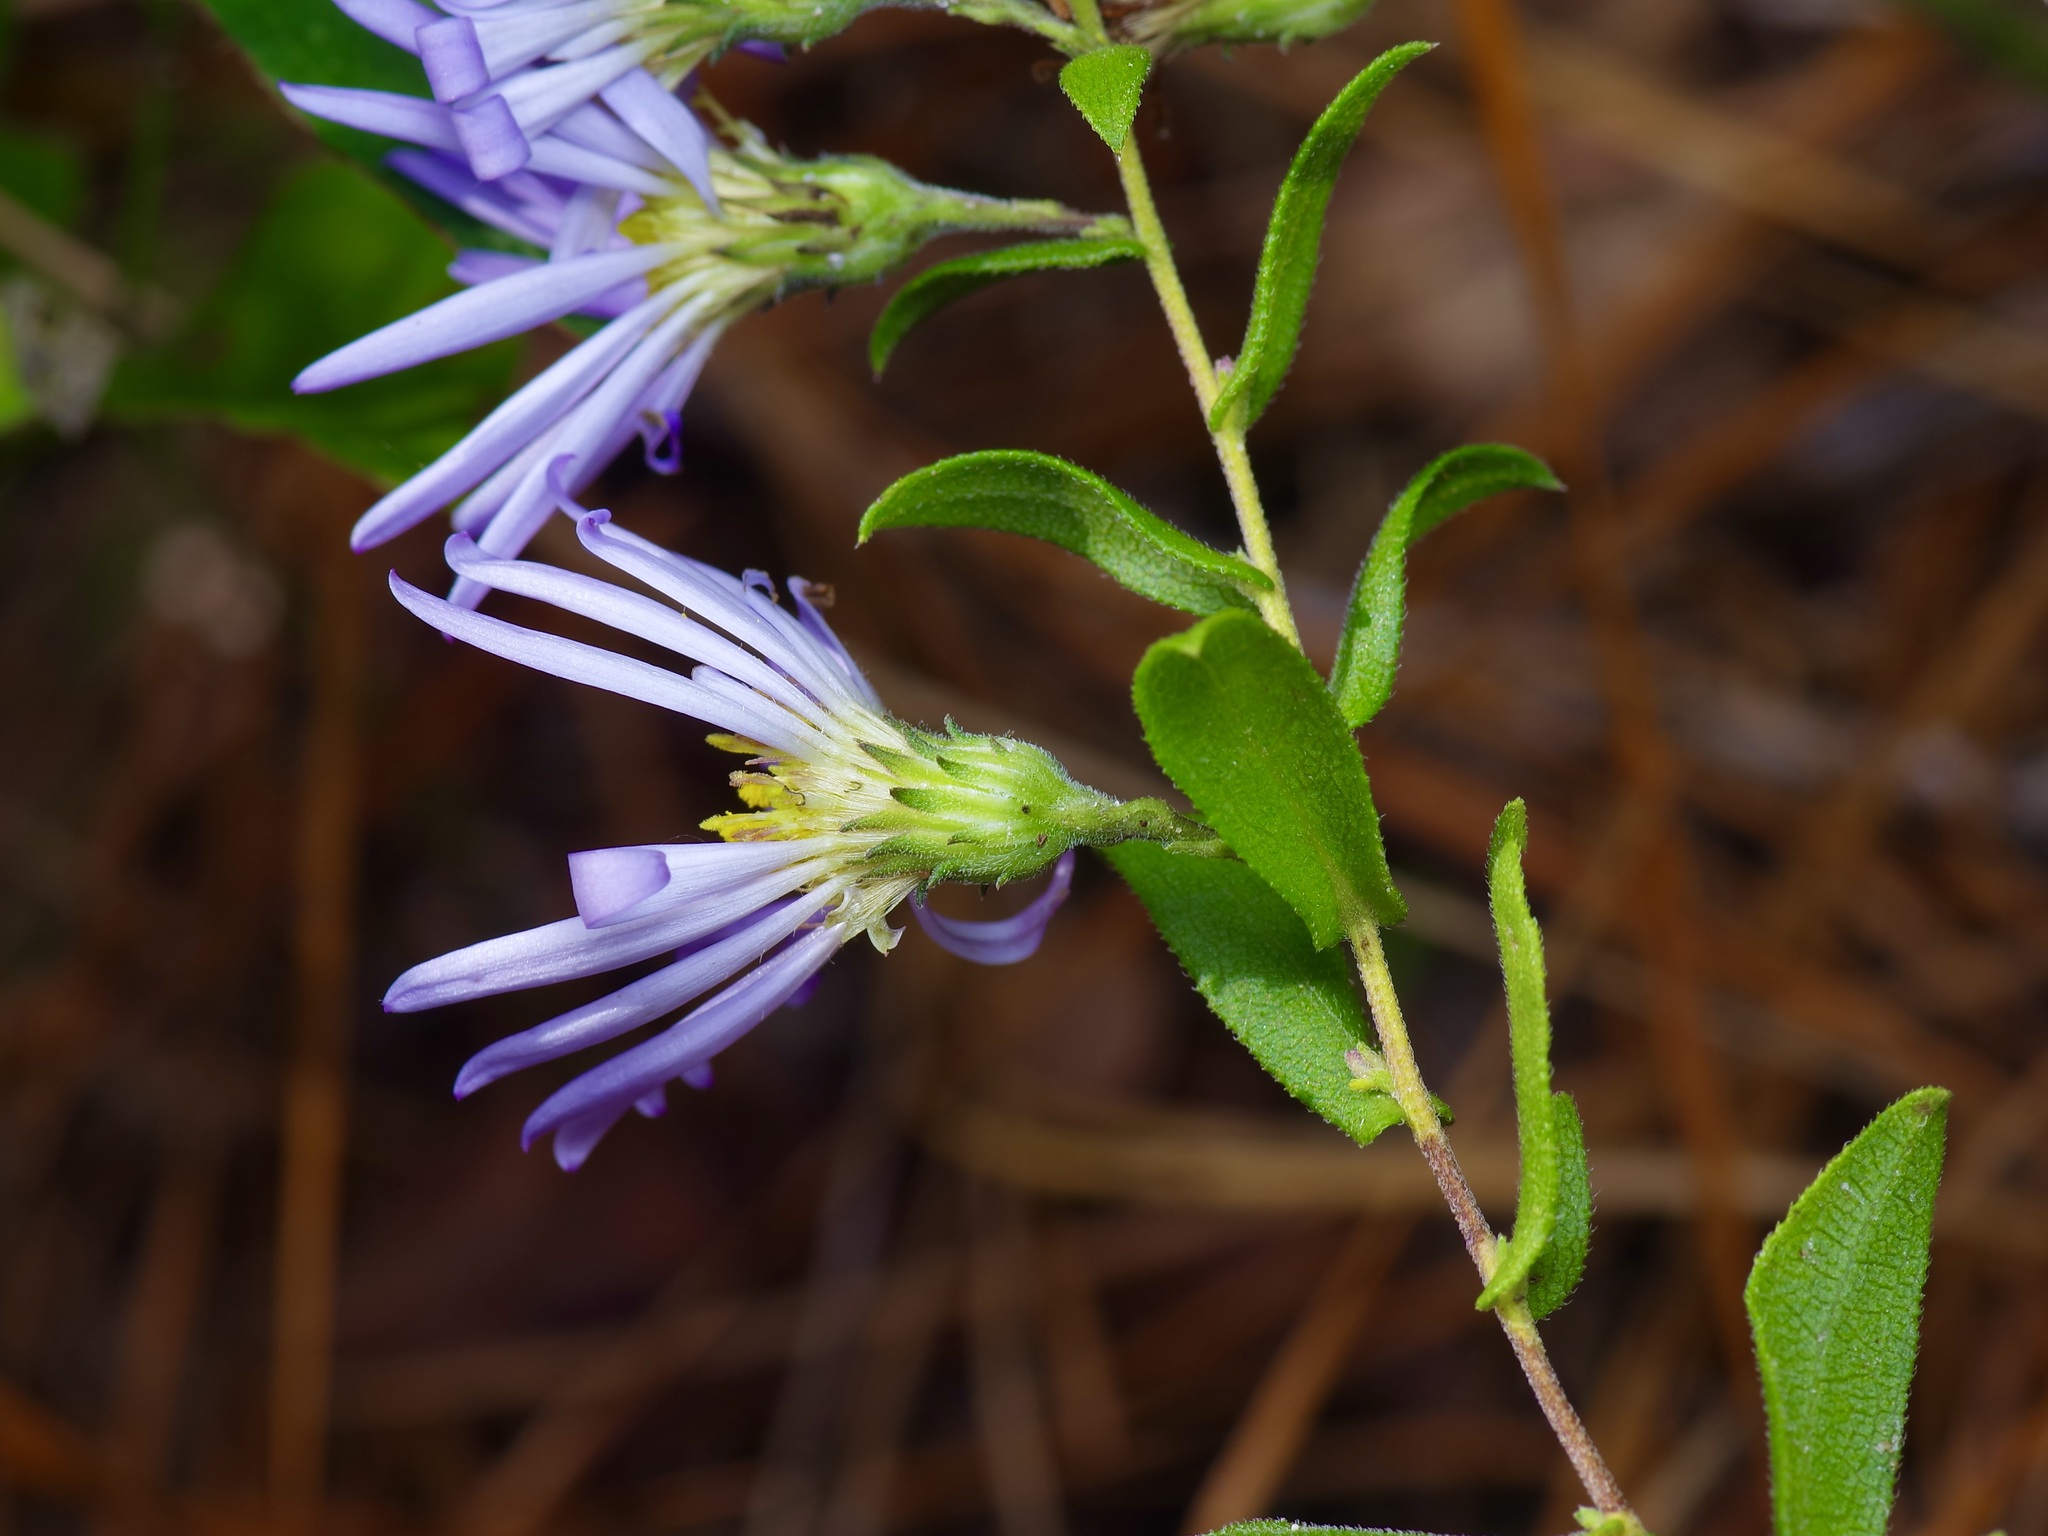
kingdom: Plantae
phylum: Tracheophyta
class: Magnoliopsida
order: Asterales
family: Asteraceae
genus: Symphyotrichum
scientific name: Symphyotrichum patens
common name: Late purple aster
